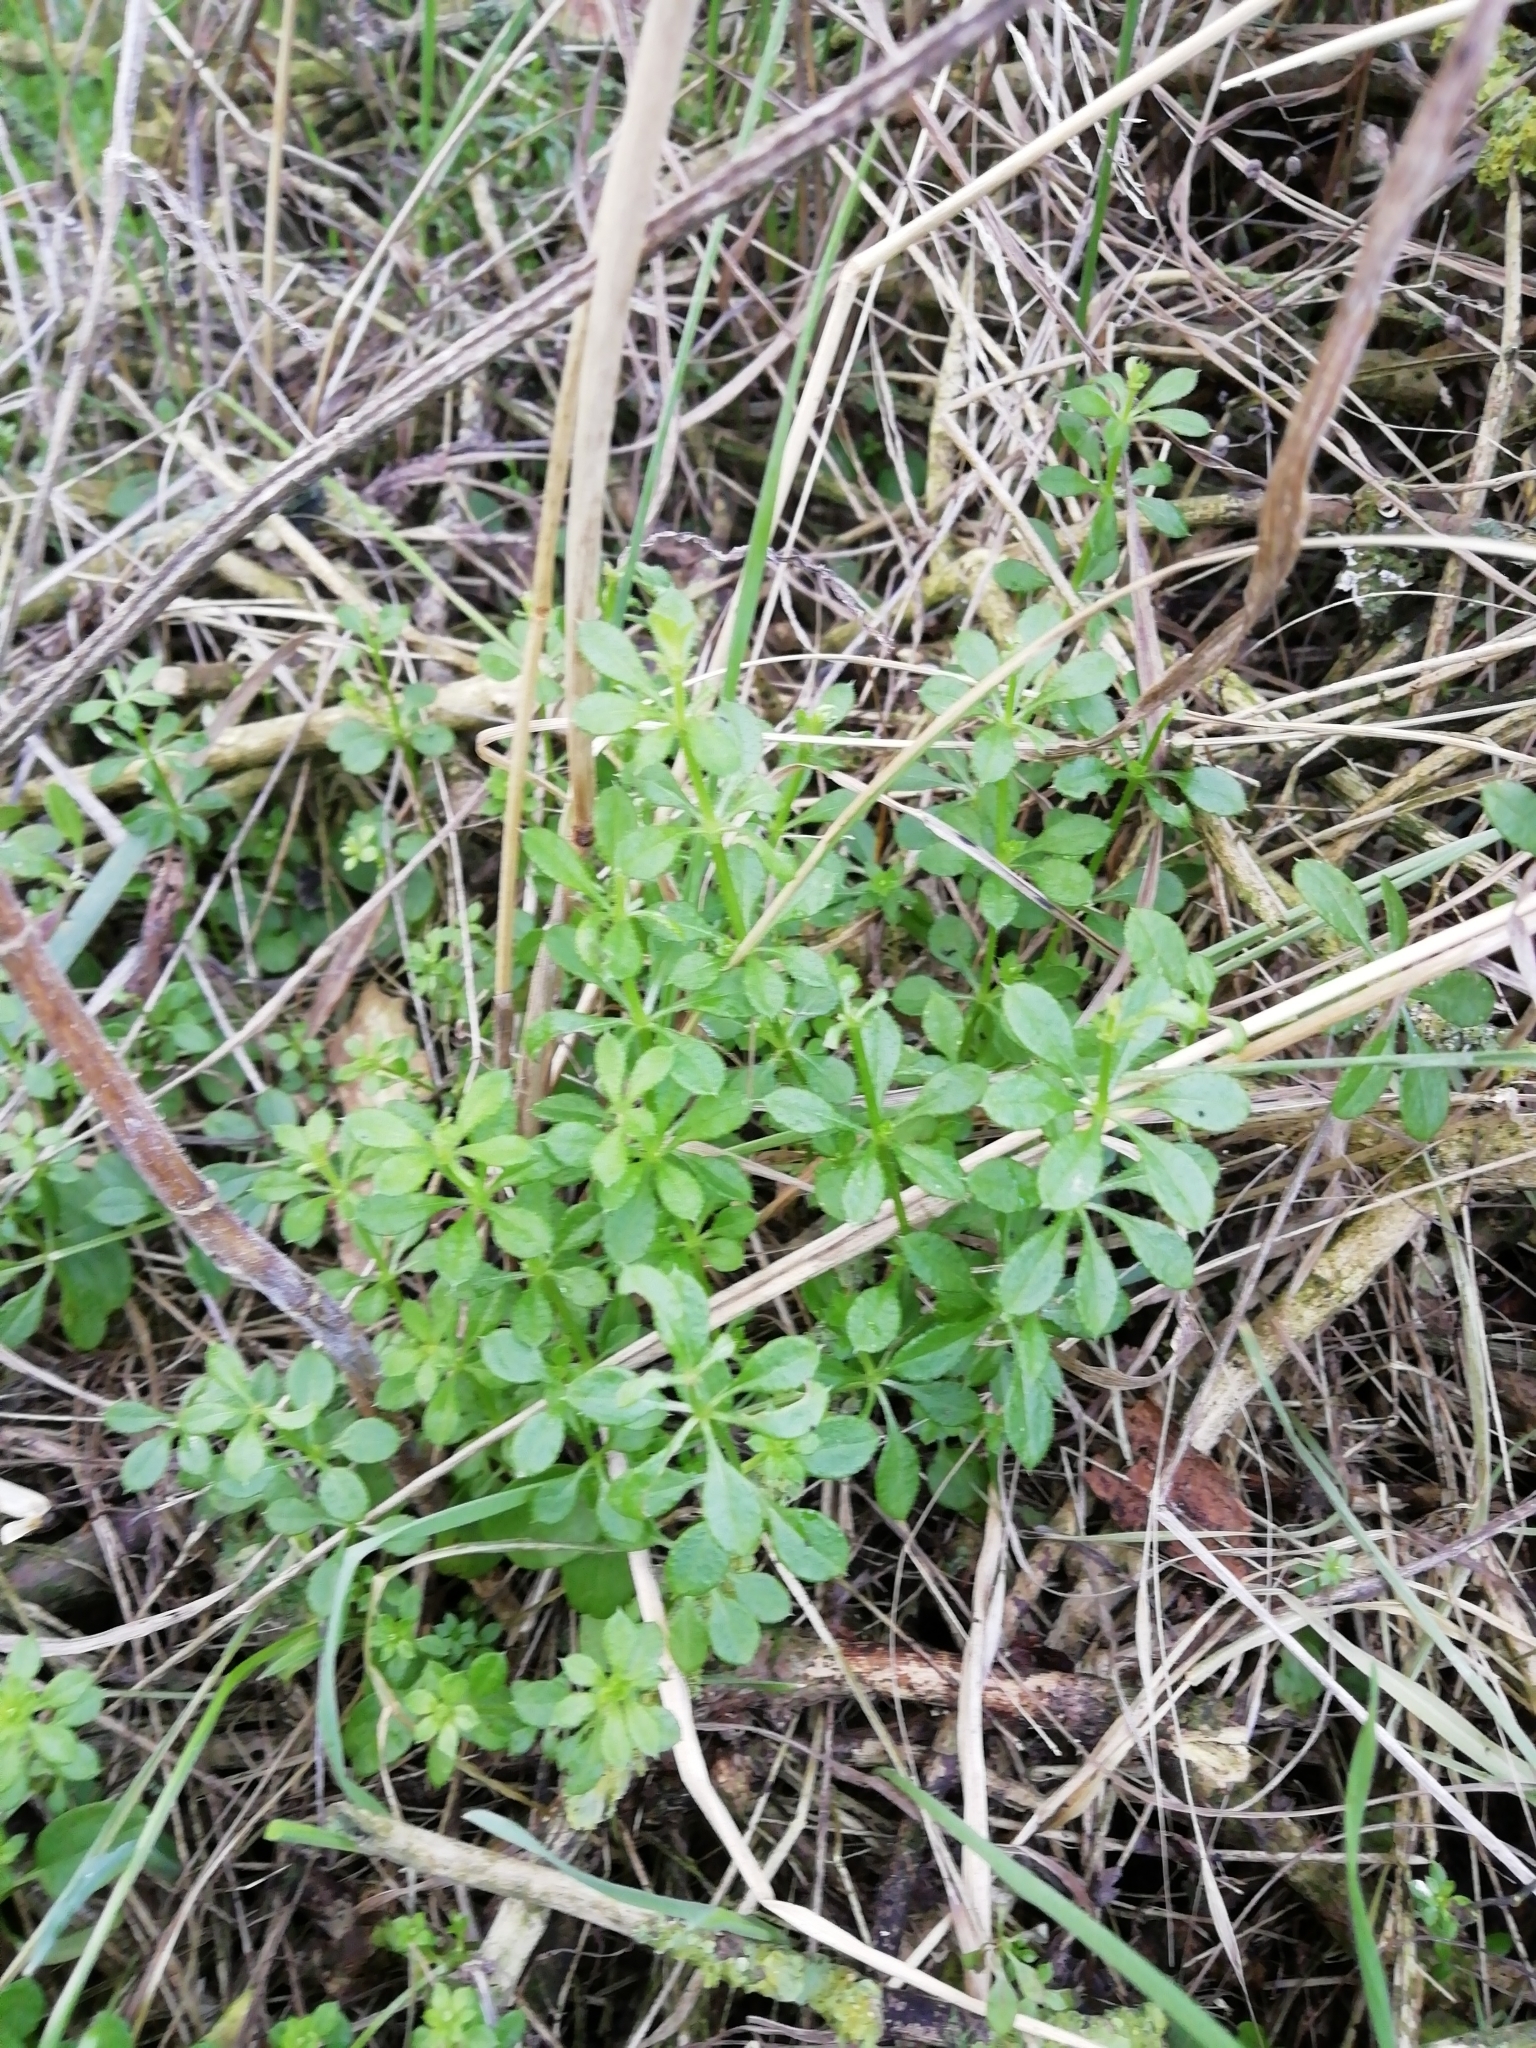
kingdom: Plantae
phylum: Tracheophyta
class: Magnoliopsida
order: Gentianales
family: Rubiaceae
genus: Galium
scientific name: Galium aparine
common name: Cleavers
